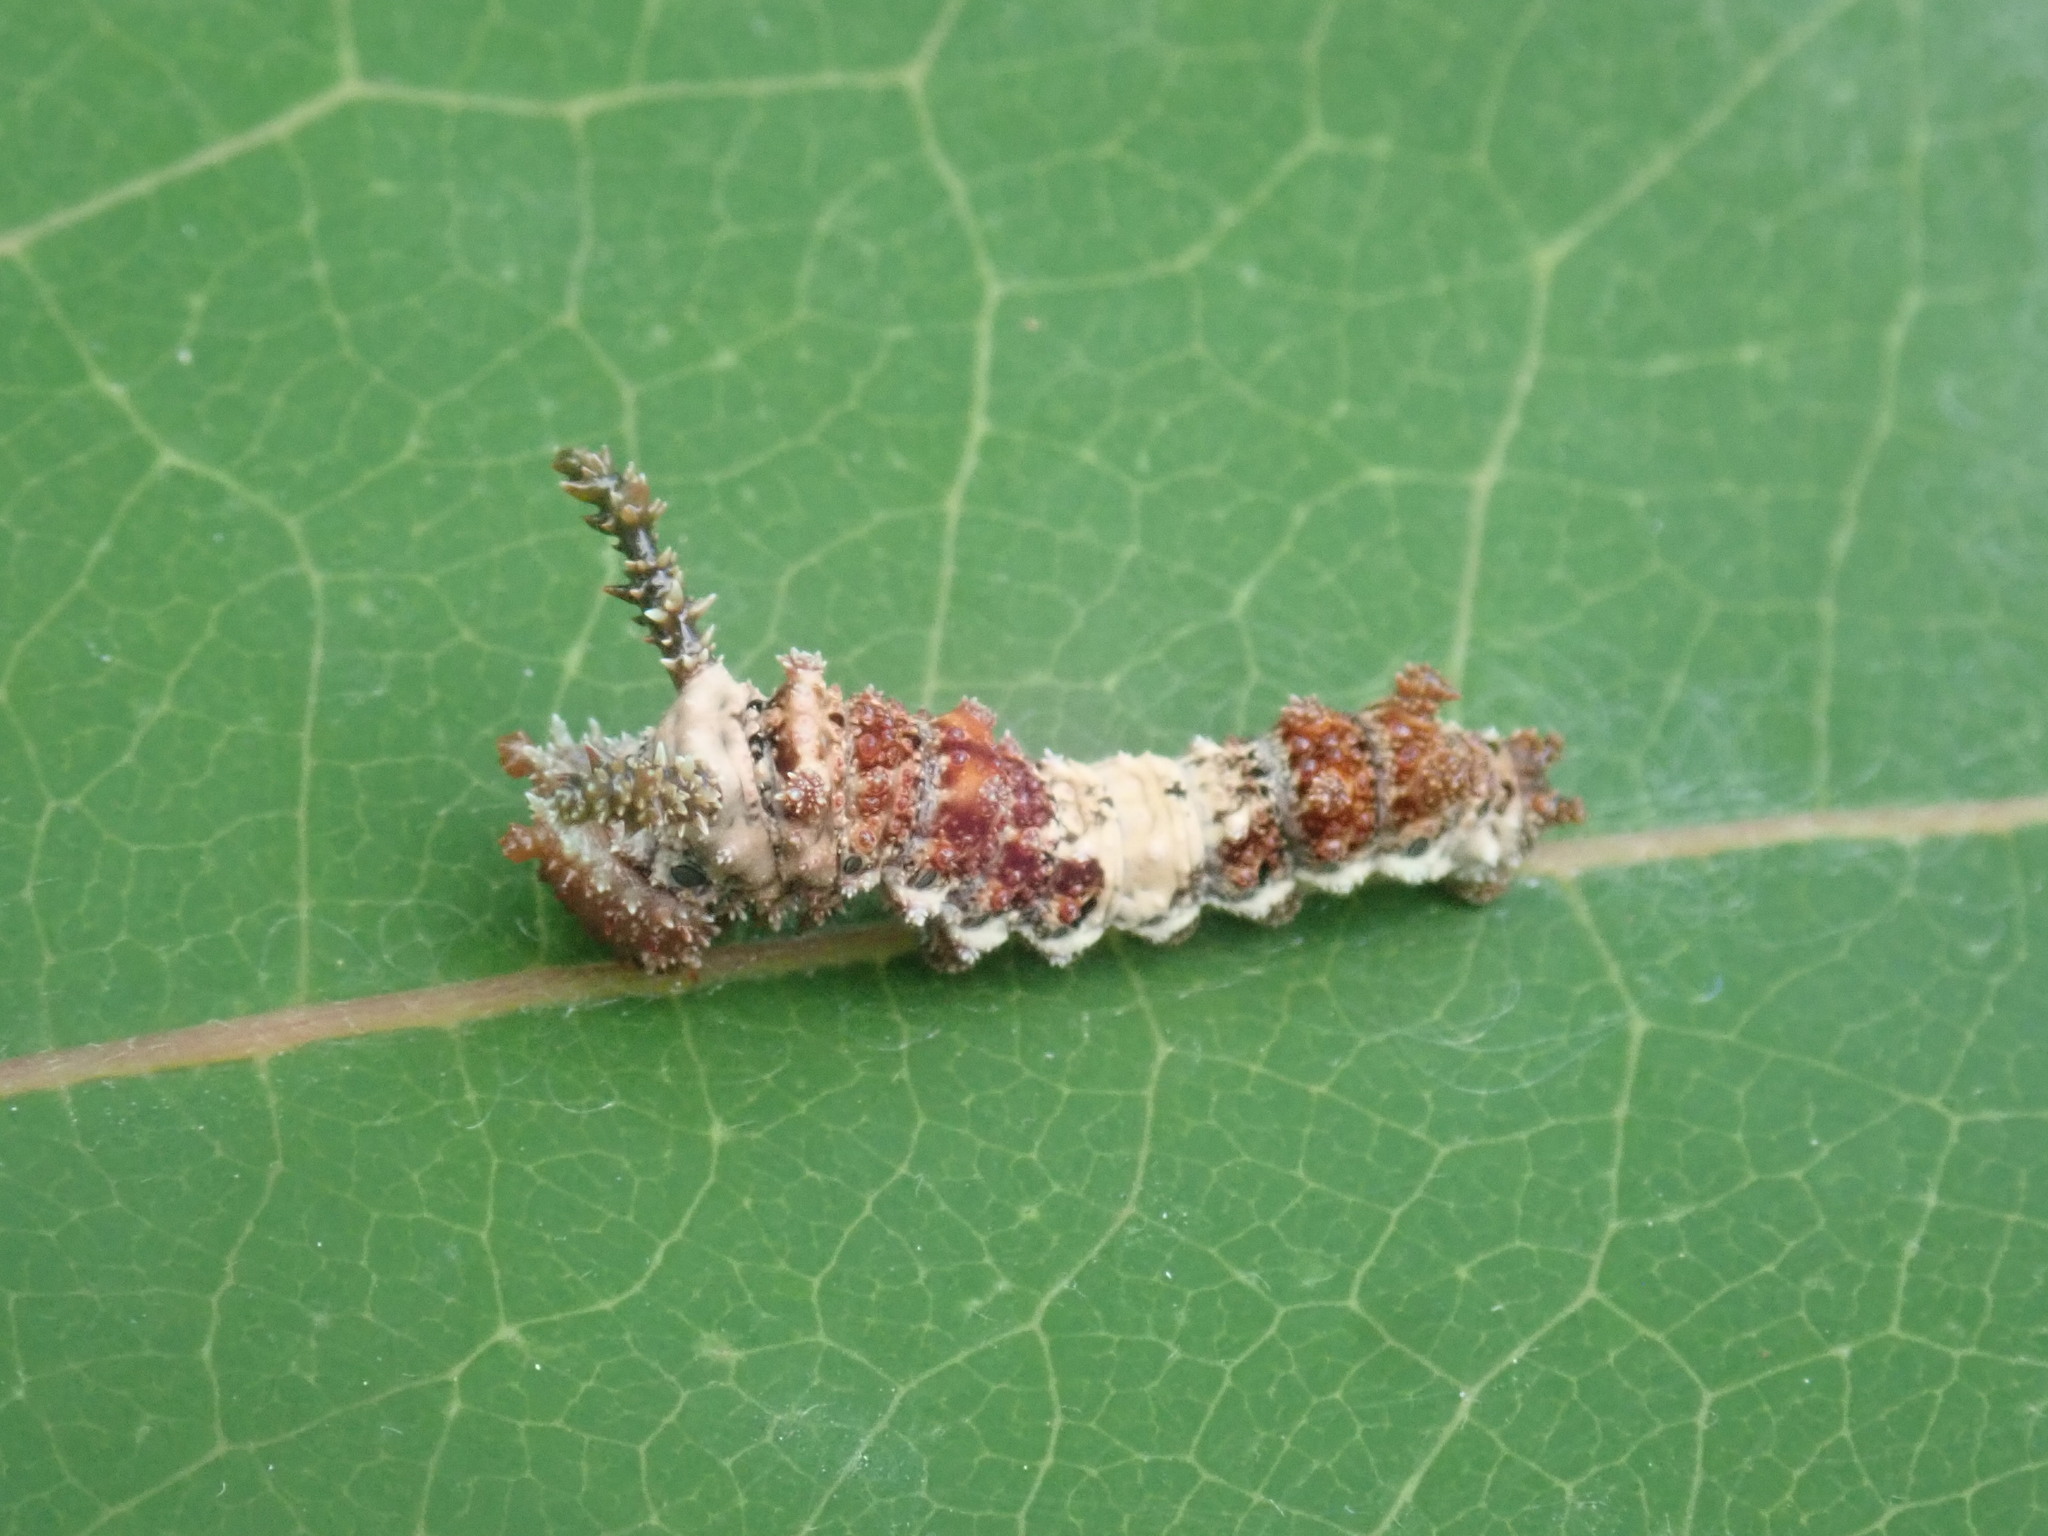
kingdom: Animalia
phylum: Arthropoda
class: Insecta
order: Lepidoptera
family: Nymphalidae
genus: Limenitis
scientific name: Limenitis archippus
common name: Viceroy
